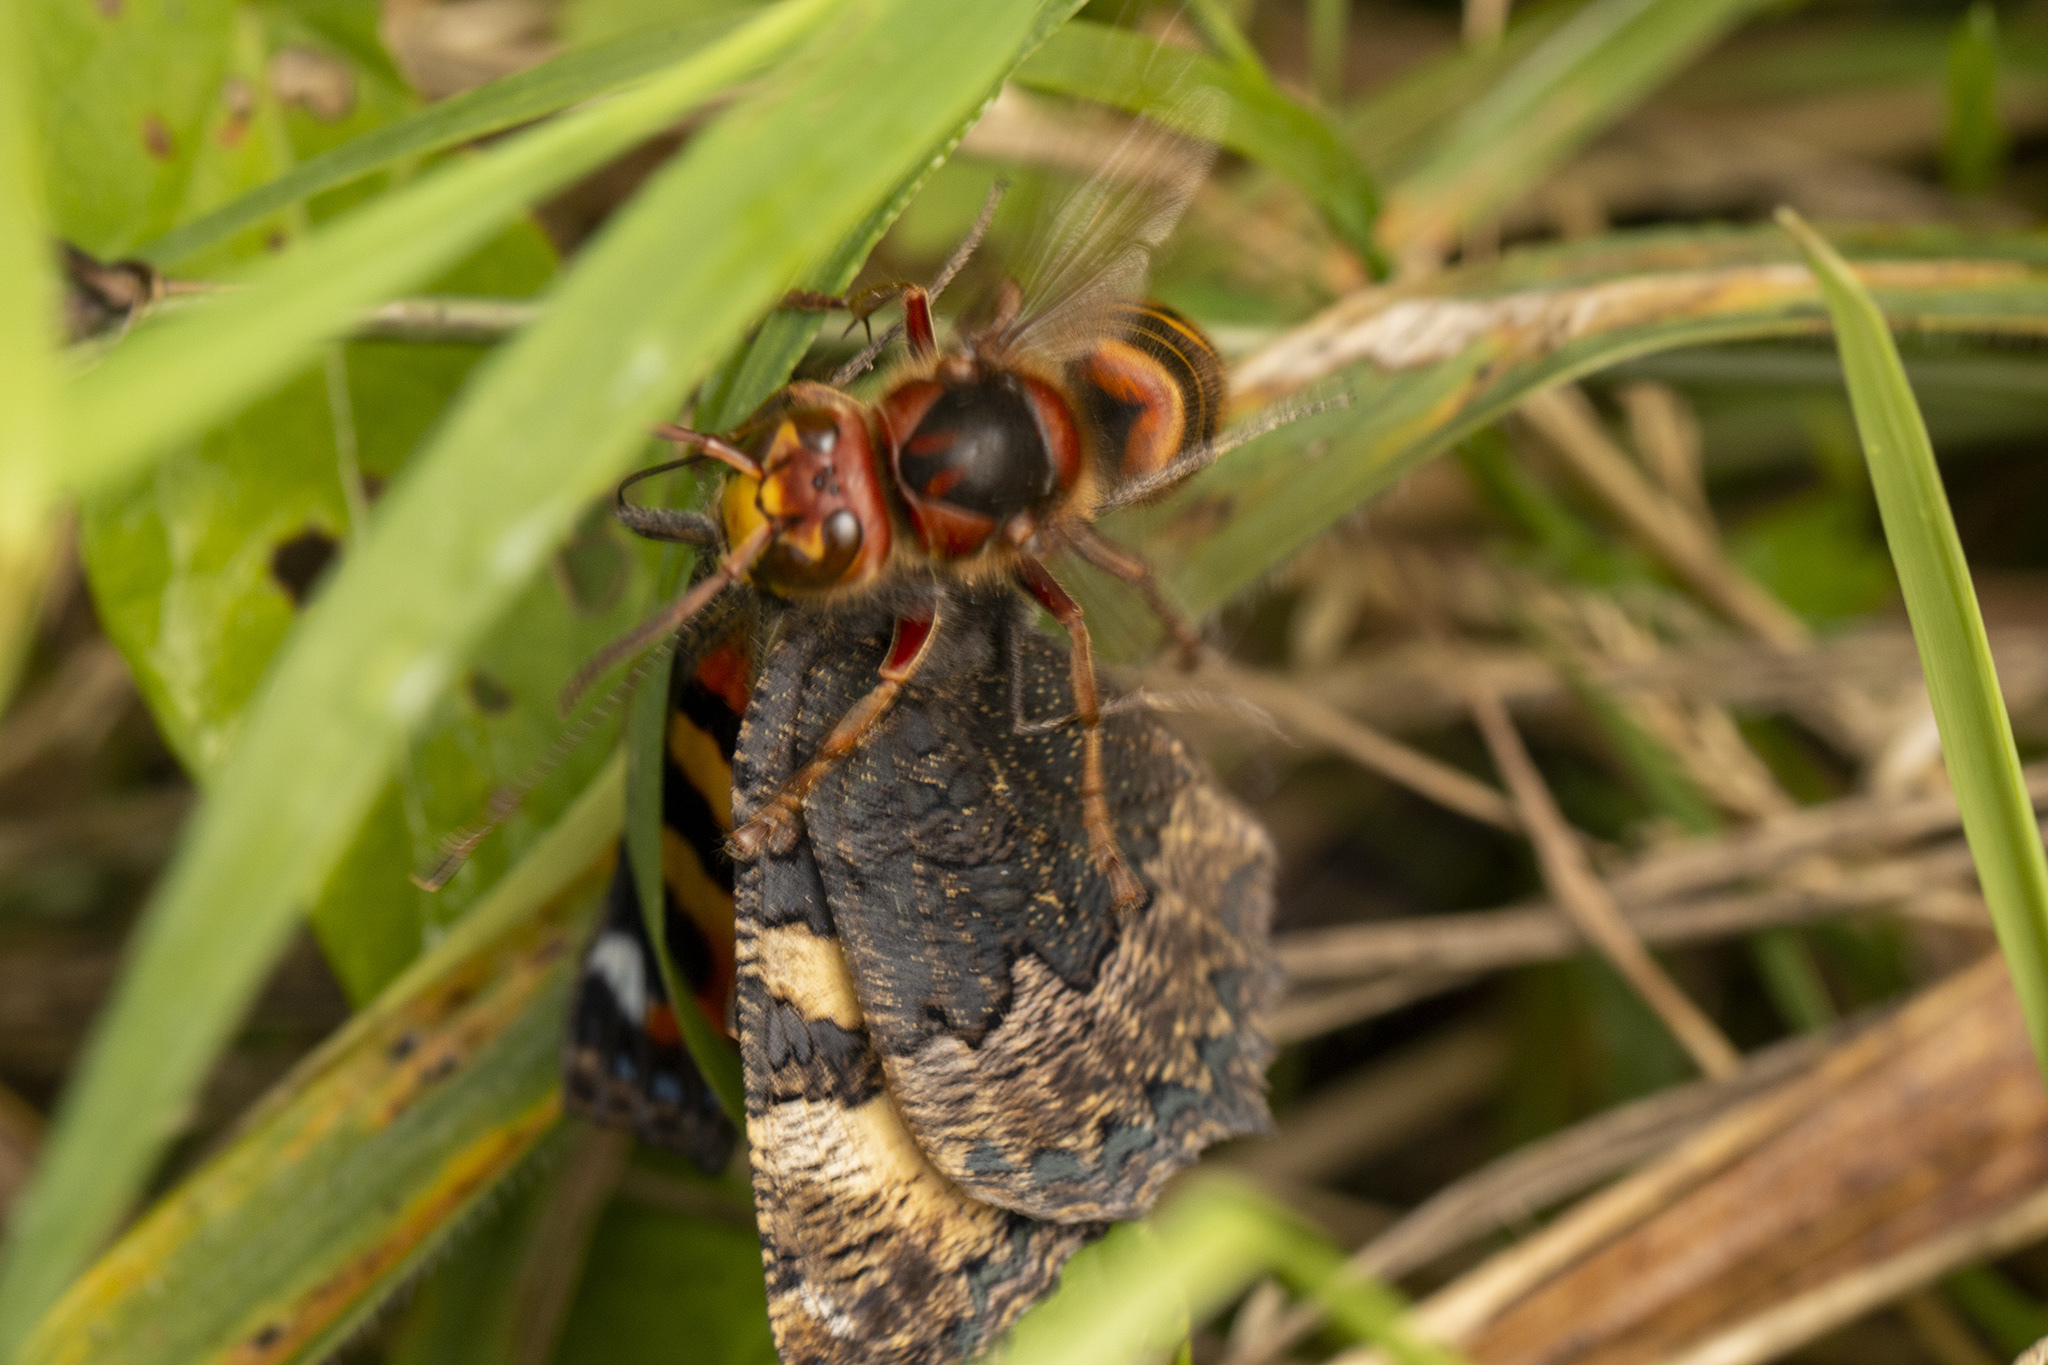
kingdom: Animalia
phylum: Arthropoda
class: Insecta
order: Hymenoptera
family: Vespidae
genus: Vespa
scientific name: Vespa crabro
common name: Hornet
